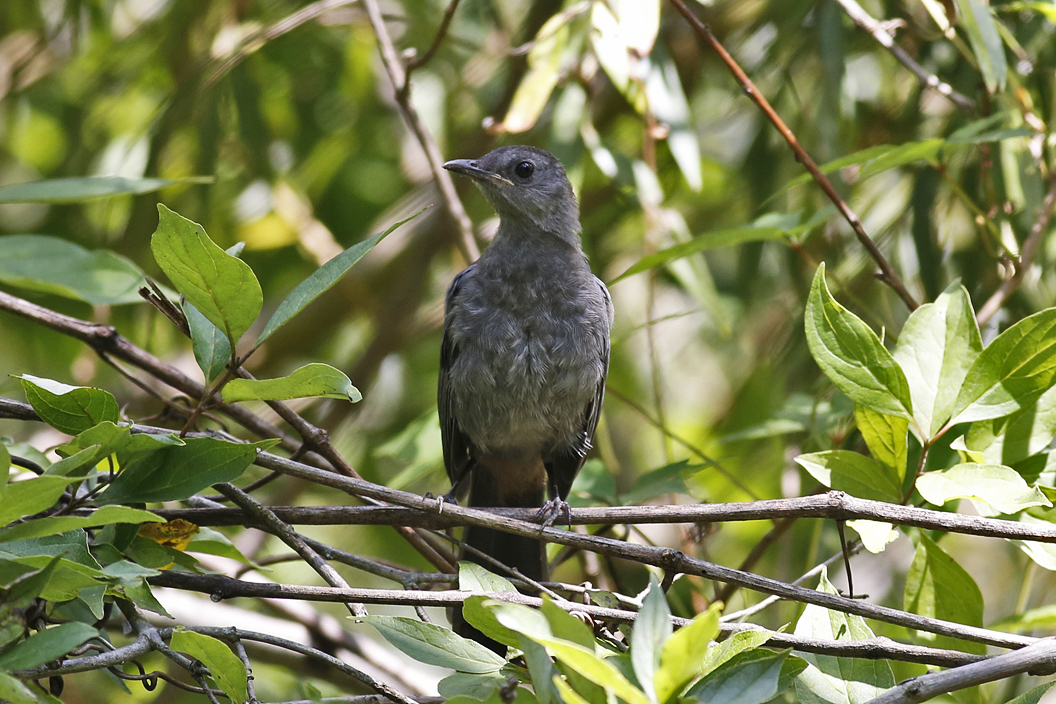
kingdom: Animalia
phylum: Chordata
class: Aves
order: Passeriformes
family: Mimidae
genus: Dumetella
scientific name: Dumetella carolinensis
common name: Gray catbird
